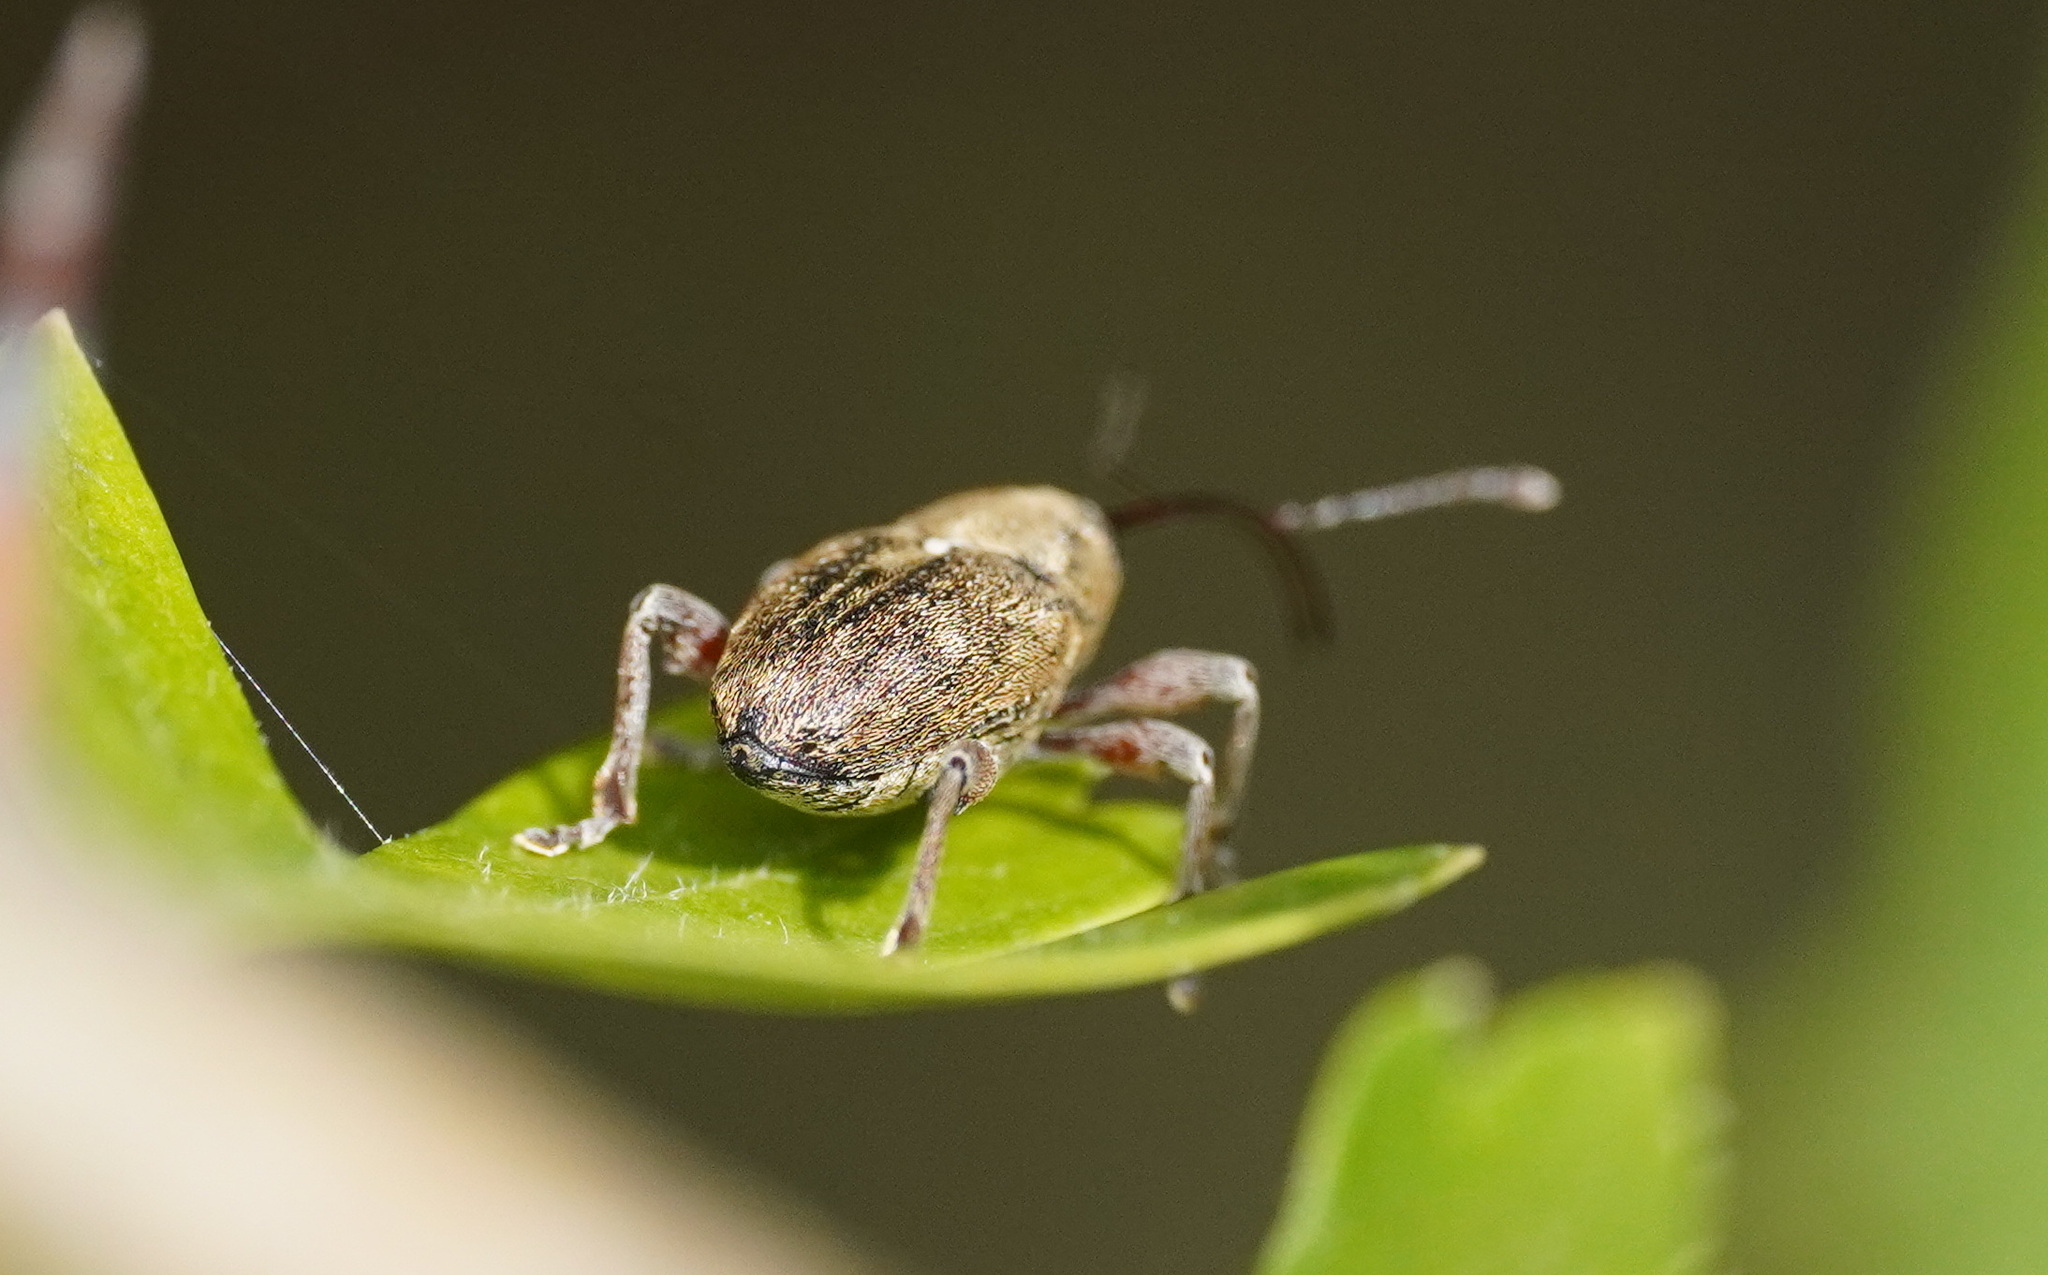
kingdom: Animalia
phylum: Arthropoda
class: Insecta
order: Coleoptera
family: Curculionidae
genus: Curculio
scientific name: Curculio glandium
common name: Acorn weevil
